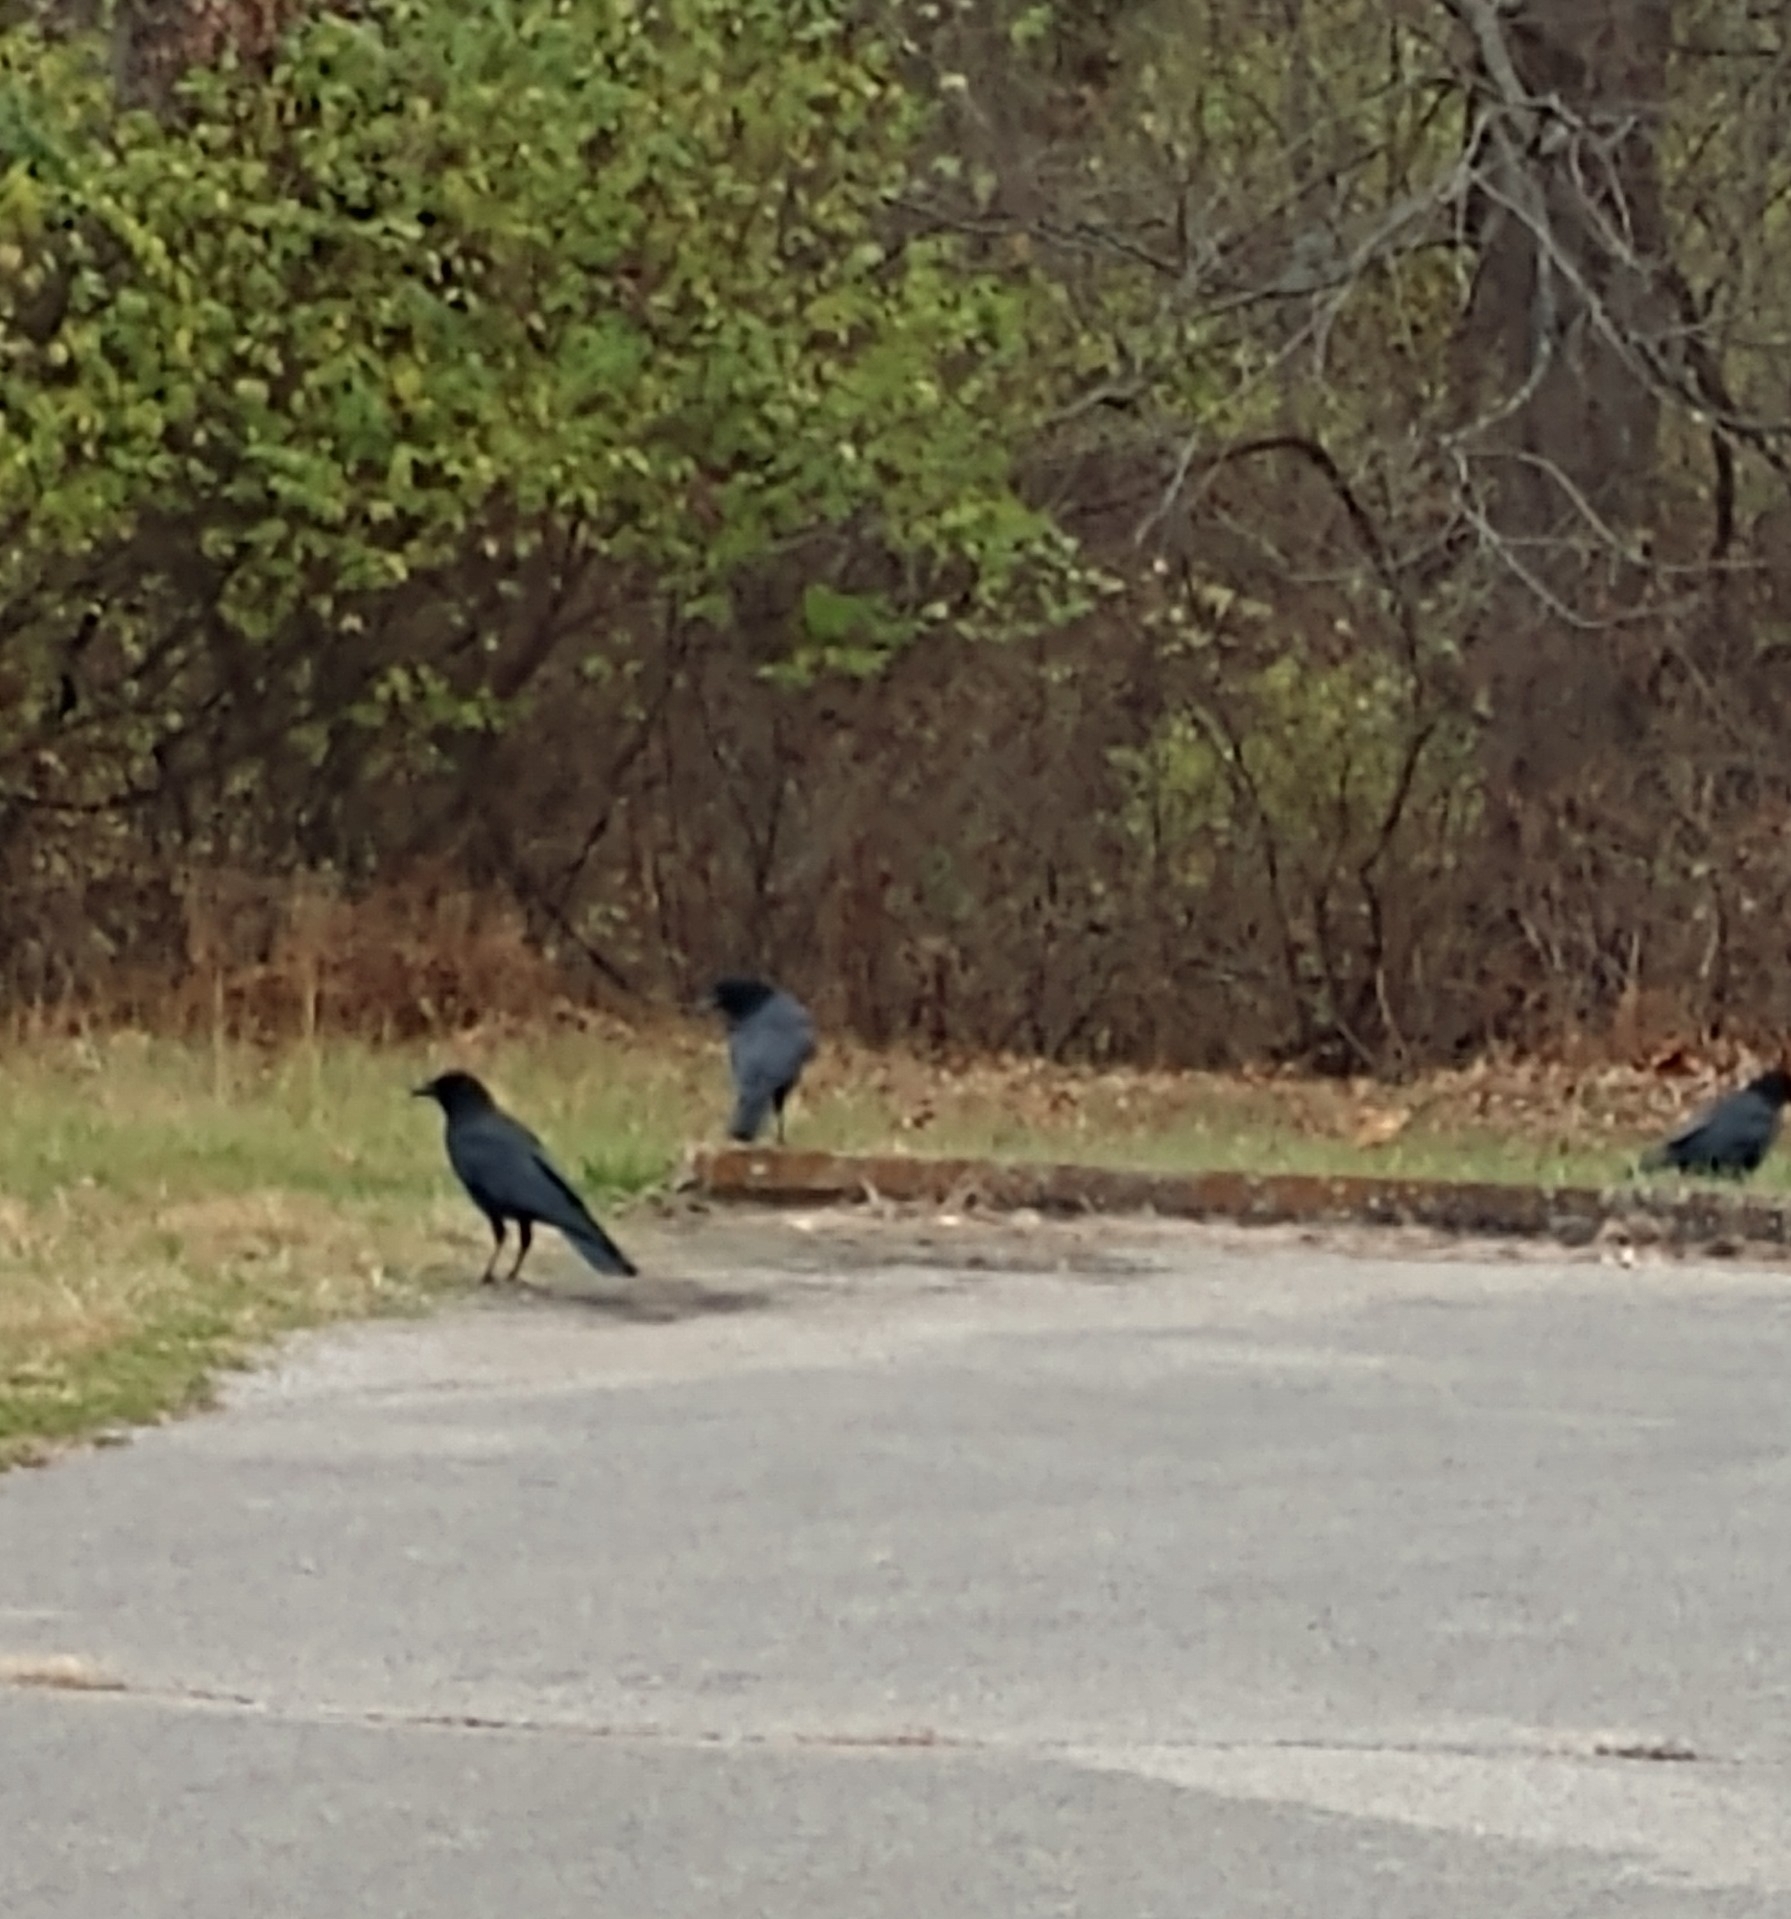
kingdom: Animalia
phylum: Chordata
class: Aves
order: Passeriformes
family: Corvidae
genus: Corvus
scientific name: Corvus brachyrhynchos
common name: American crow
